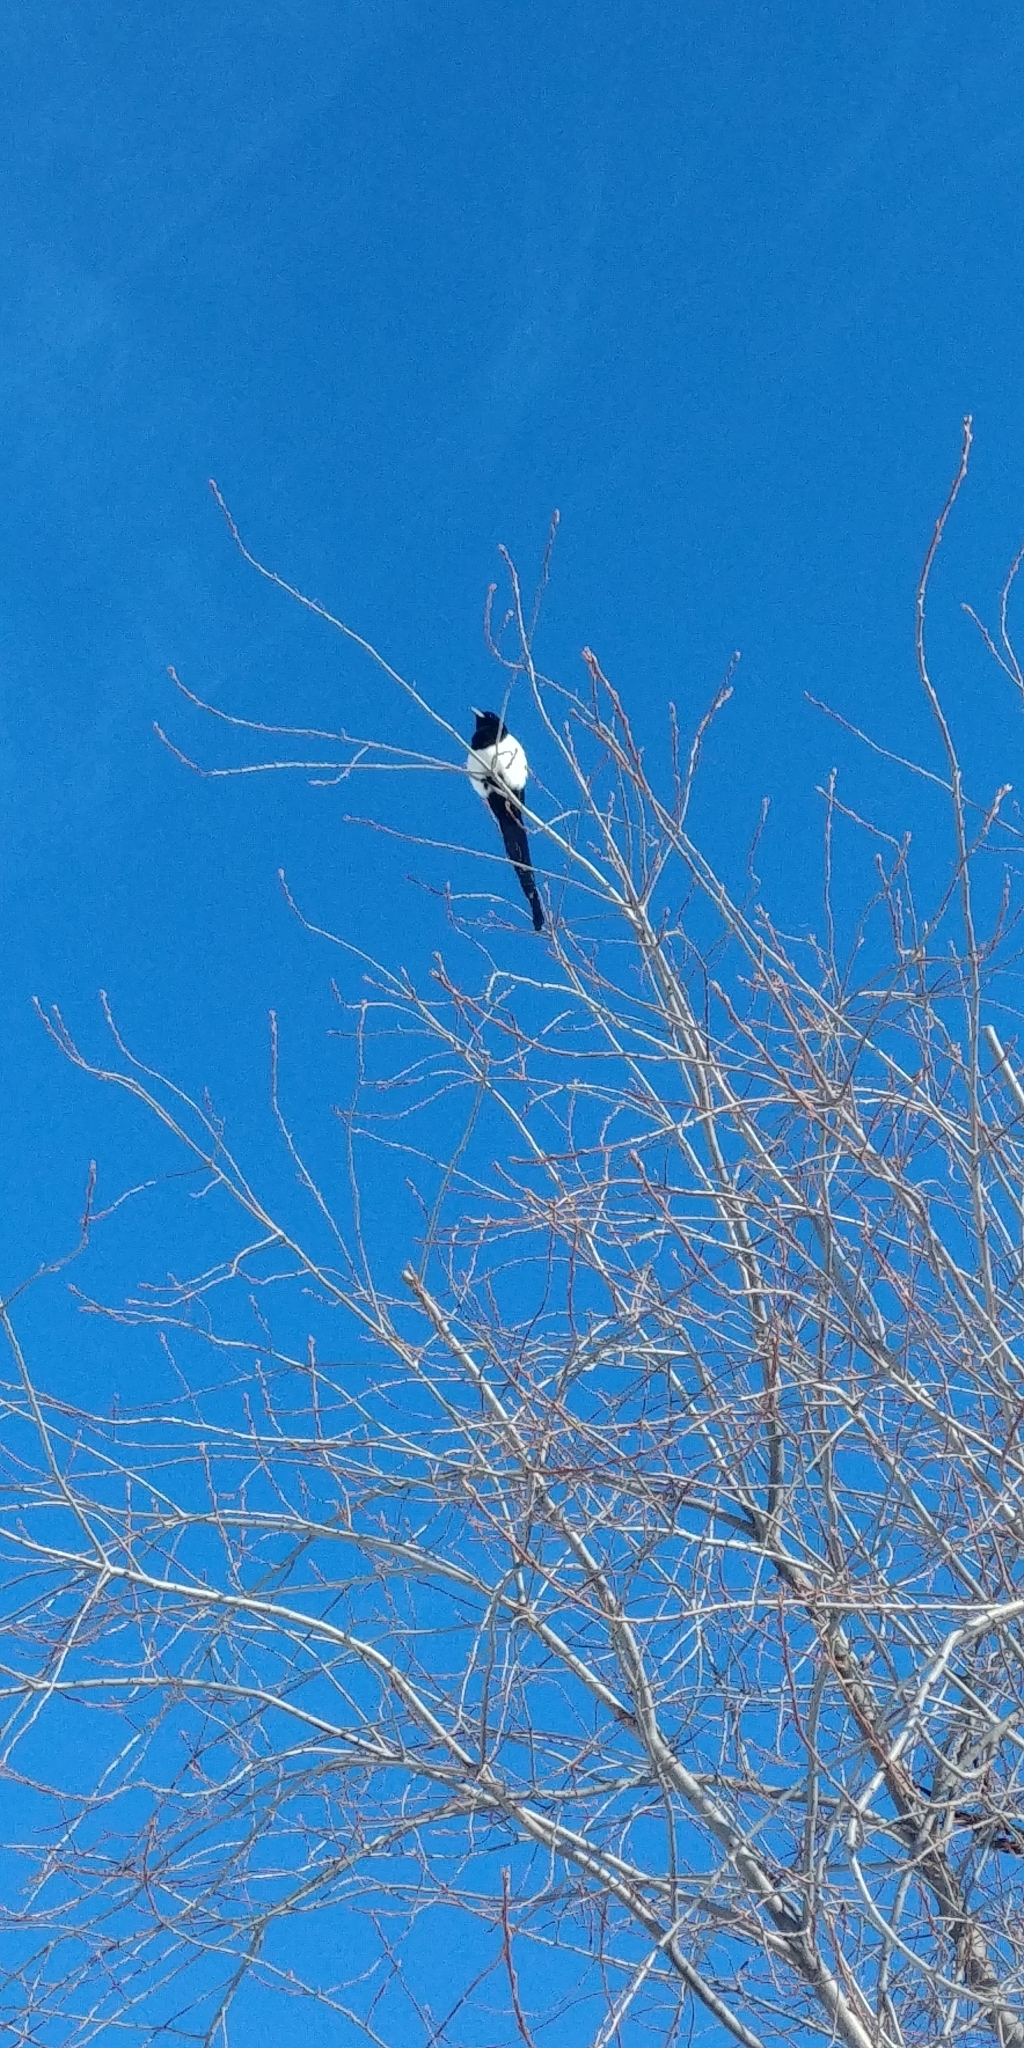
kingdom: Animalia
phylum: Chordata
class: Aves
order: Passeriformes
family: Corvidae
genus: Pica
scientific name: Pica hudsonia
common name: Black-billed magpie
